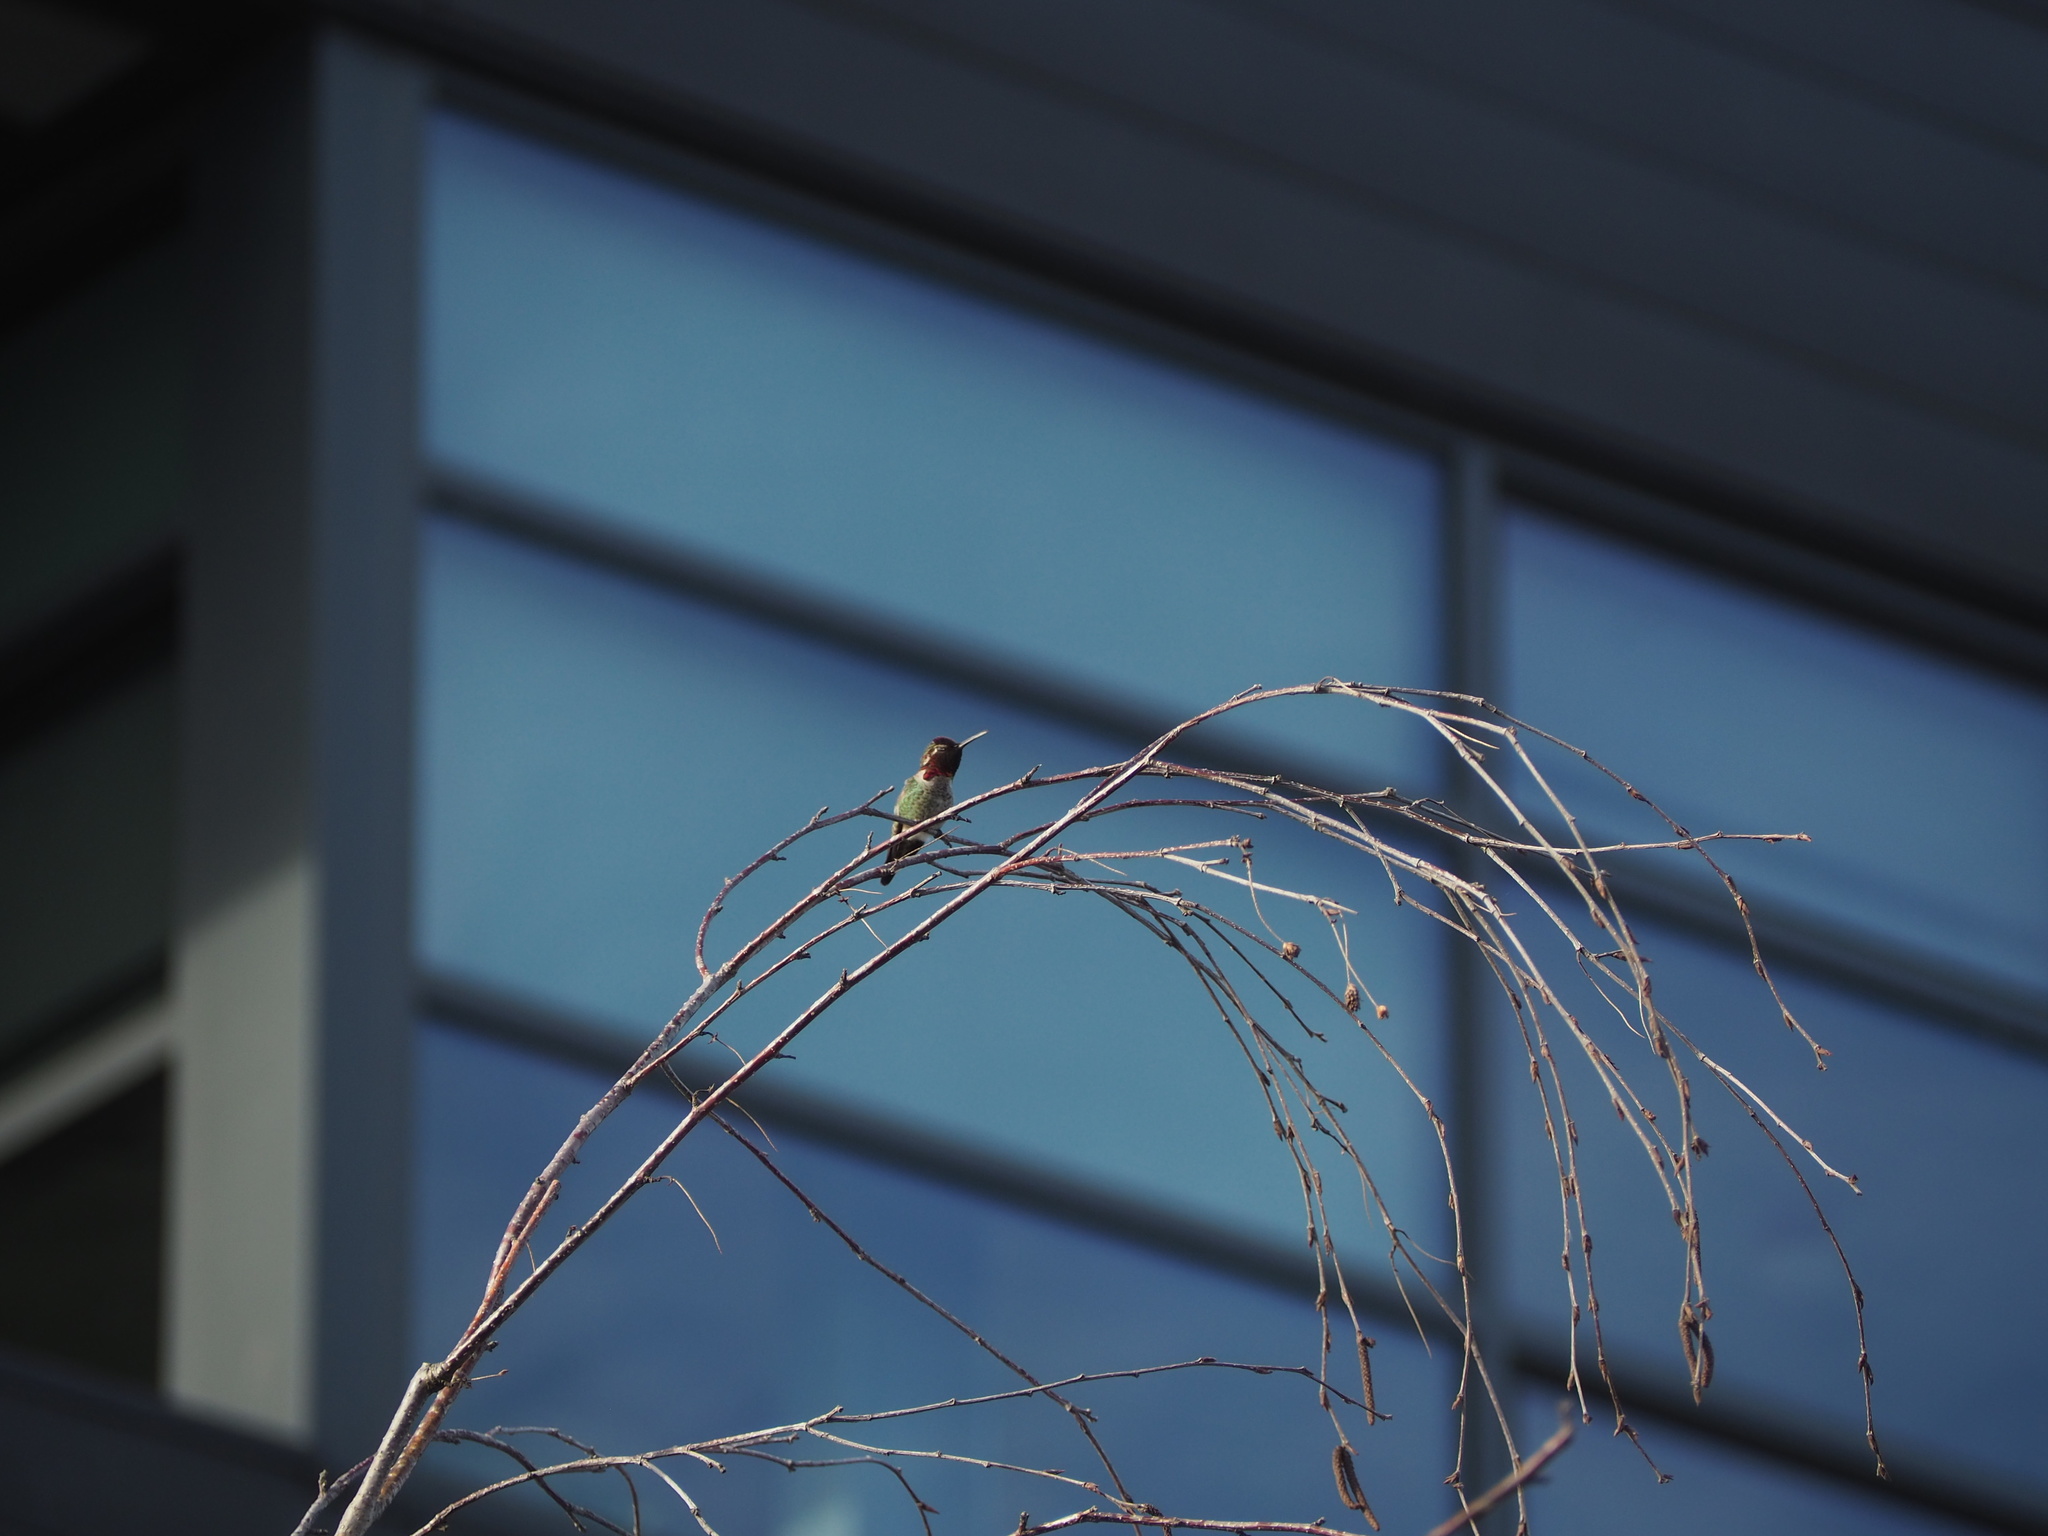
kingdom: Animalia
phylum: Chordata
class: Aves
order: Apodiformes
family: Trochilidae
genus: Calypte
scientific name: Calypte anna
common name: Anna's hummingbird
